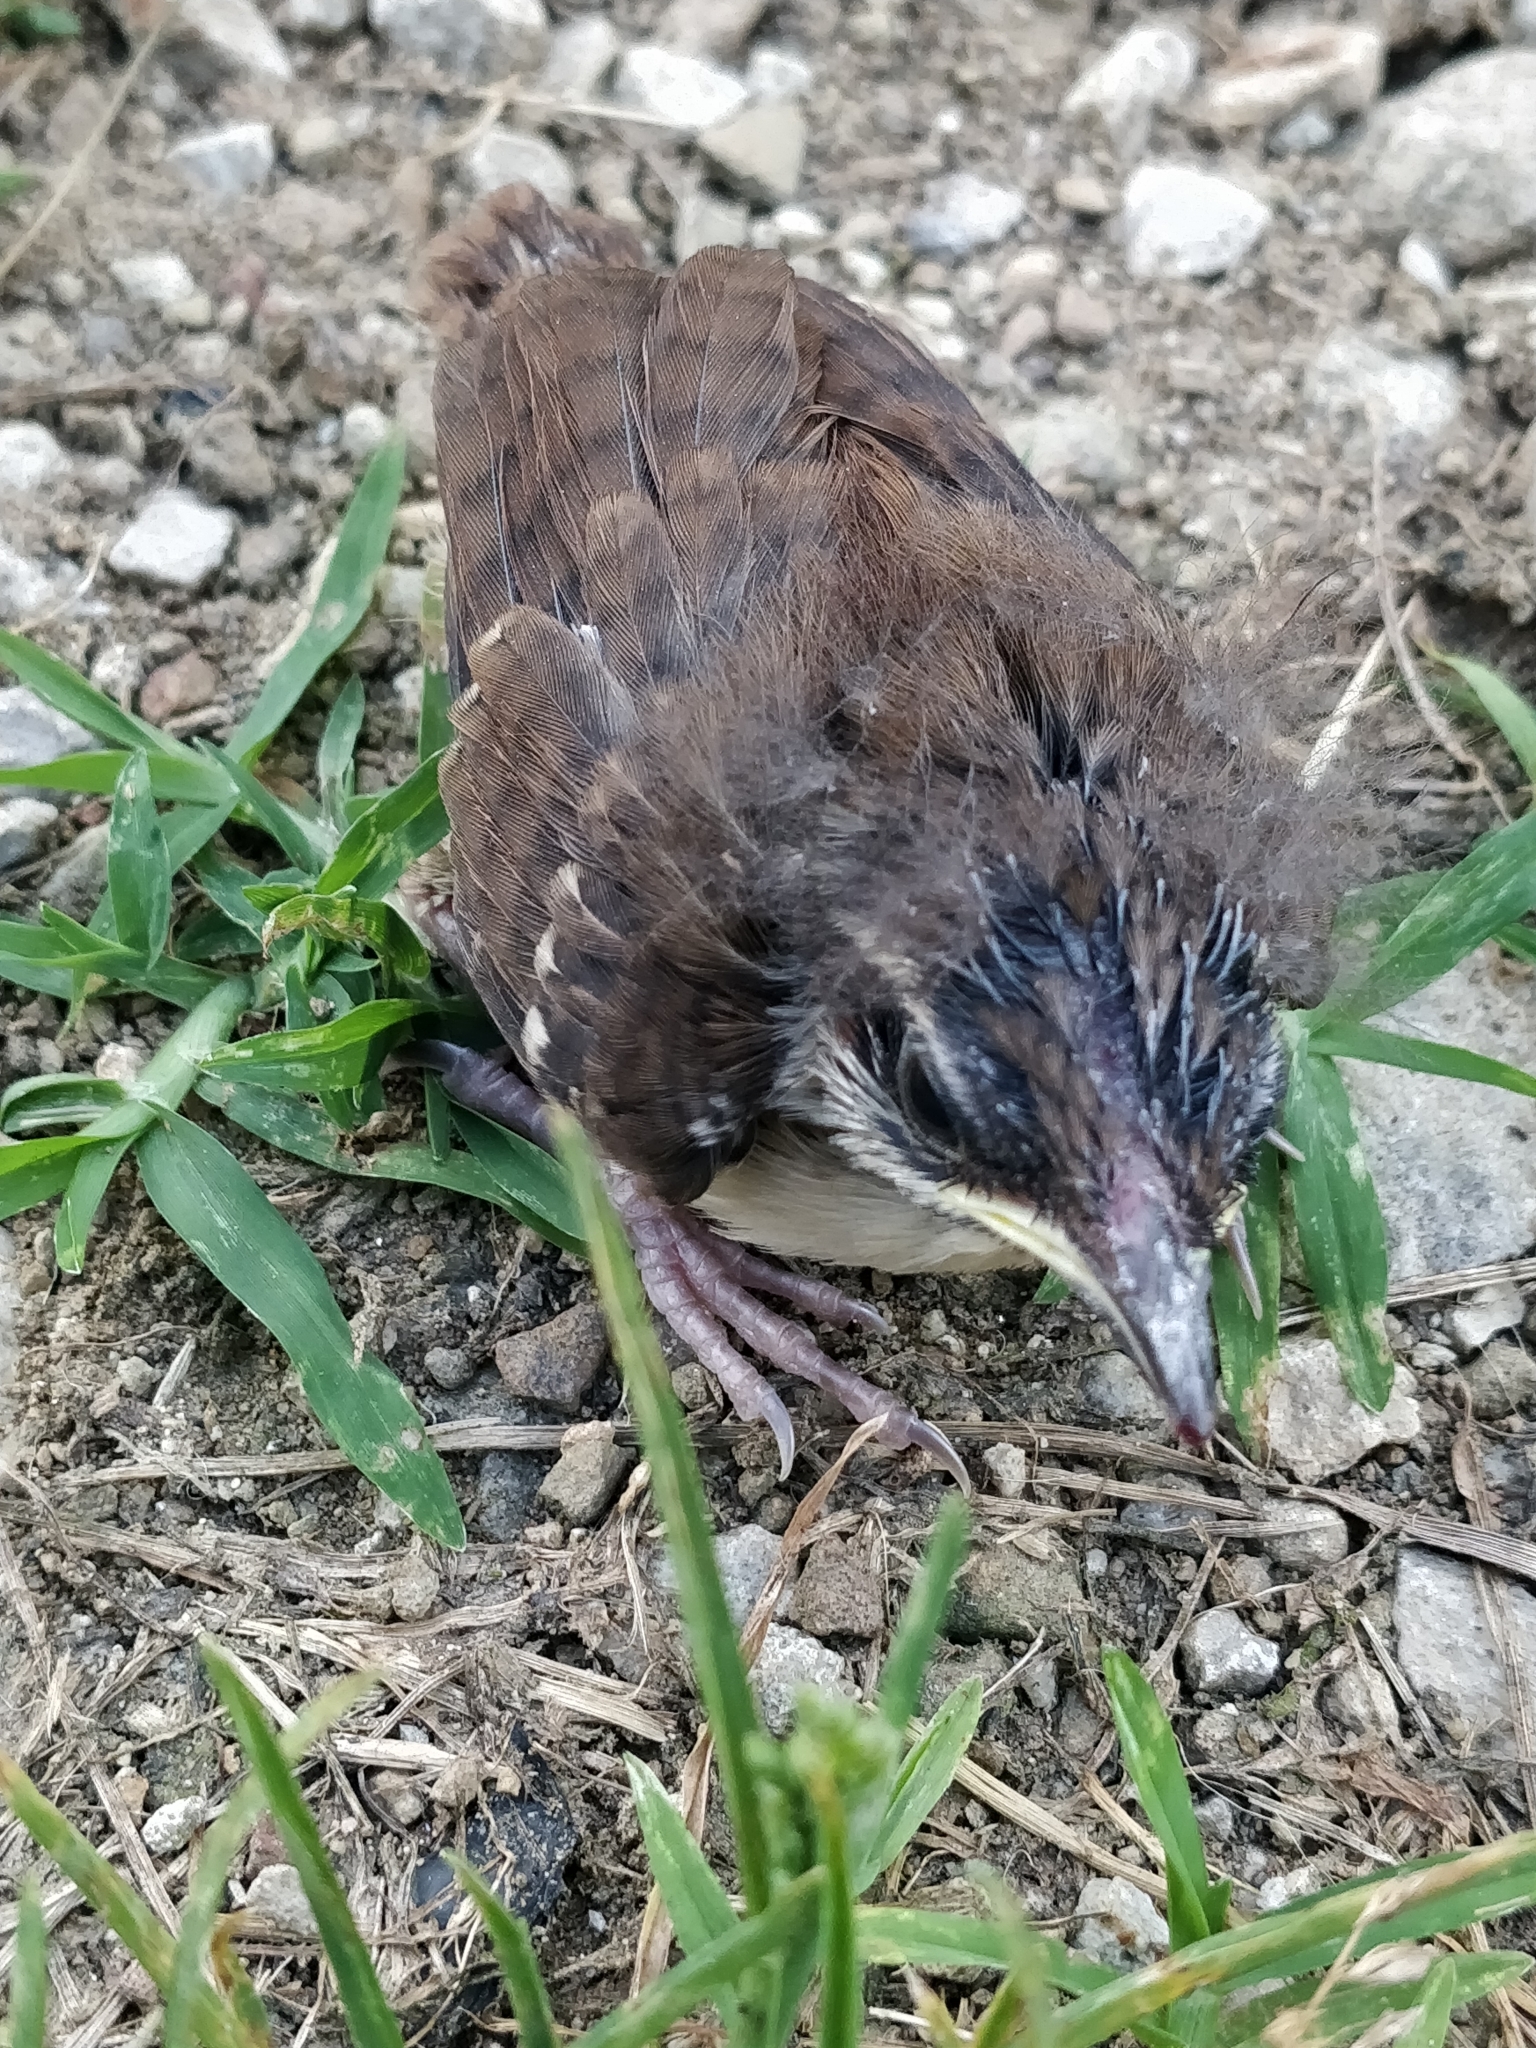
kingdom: Animalia
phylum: Chordata
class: Aves
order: Passeriformes
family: Troglodytidae
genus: Thryothorus
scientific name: Thryothorus ludovicianus
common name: Carolina wren
